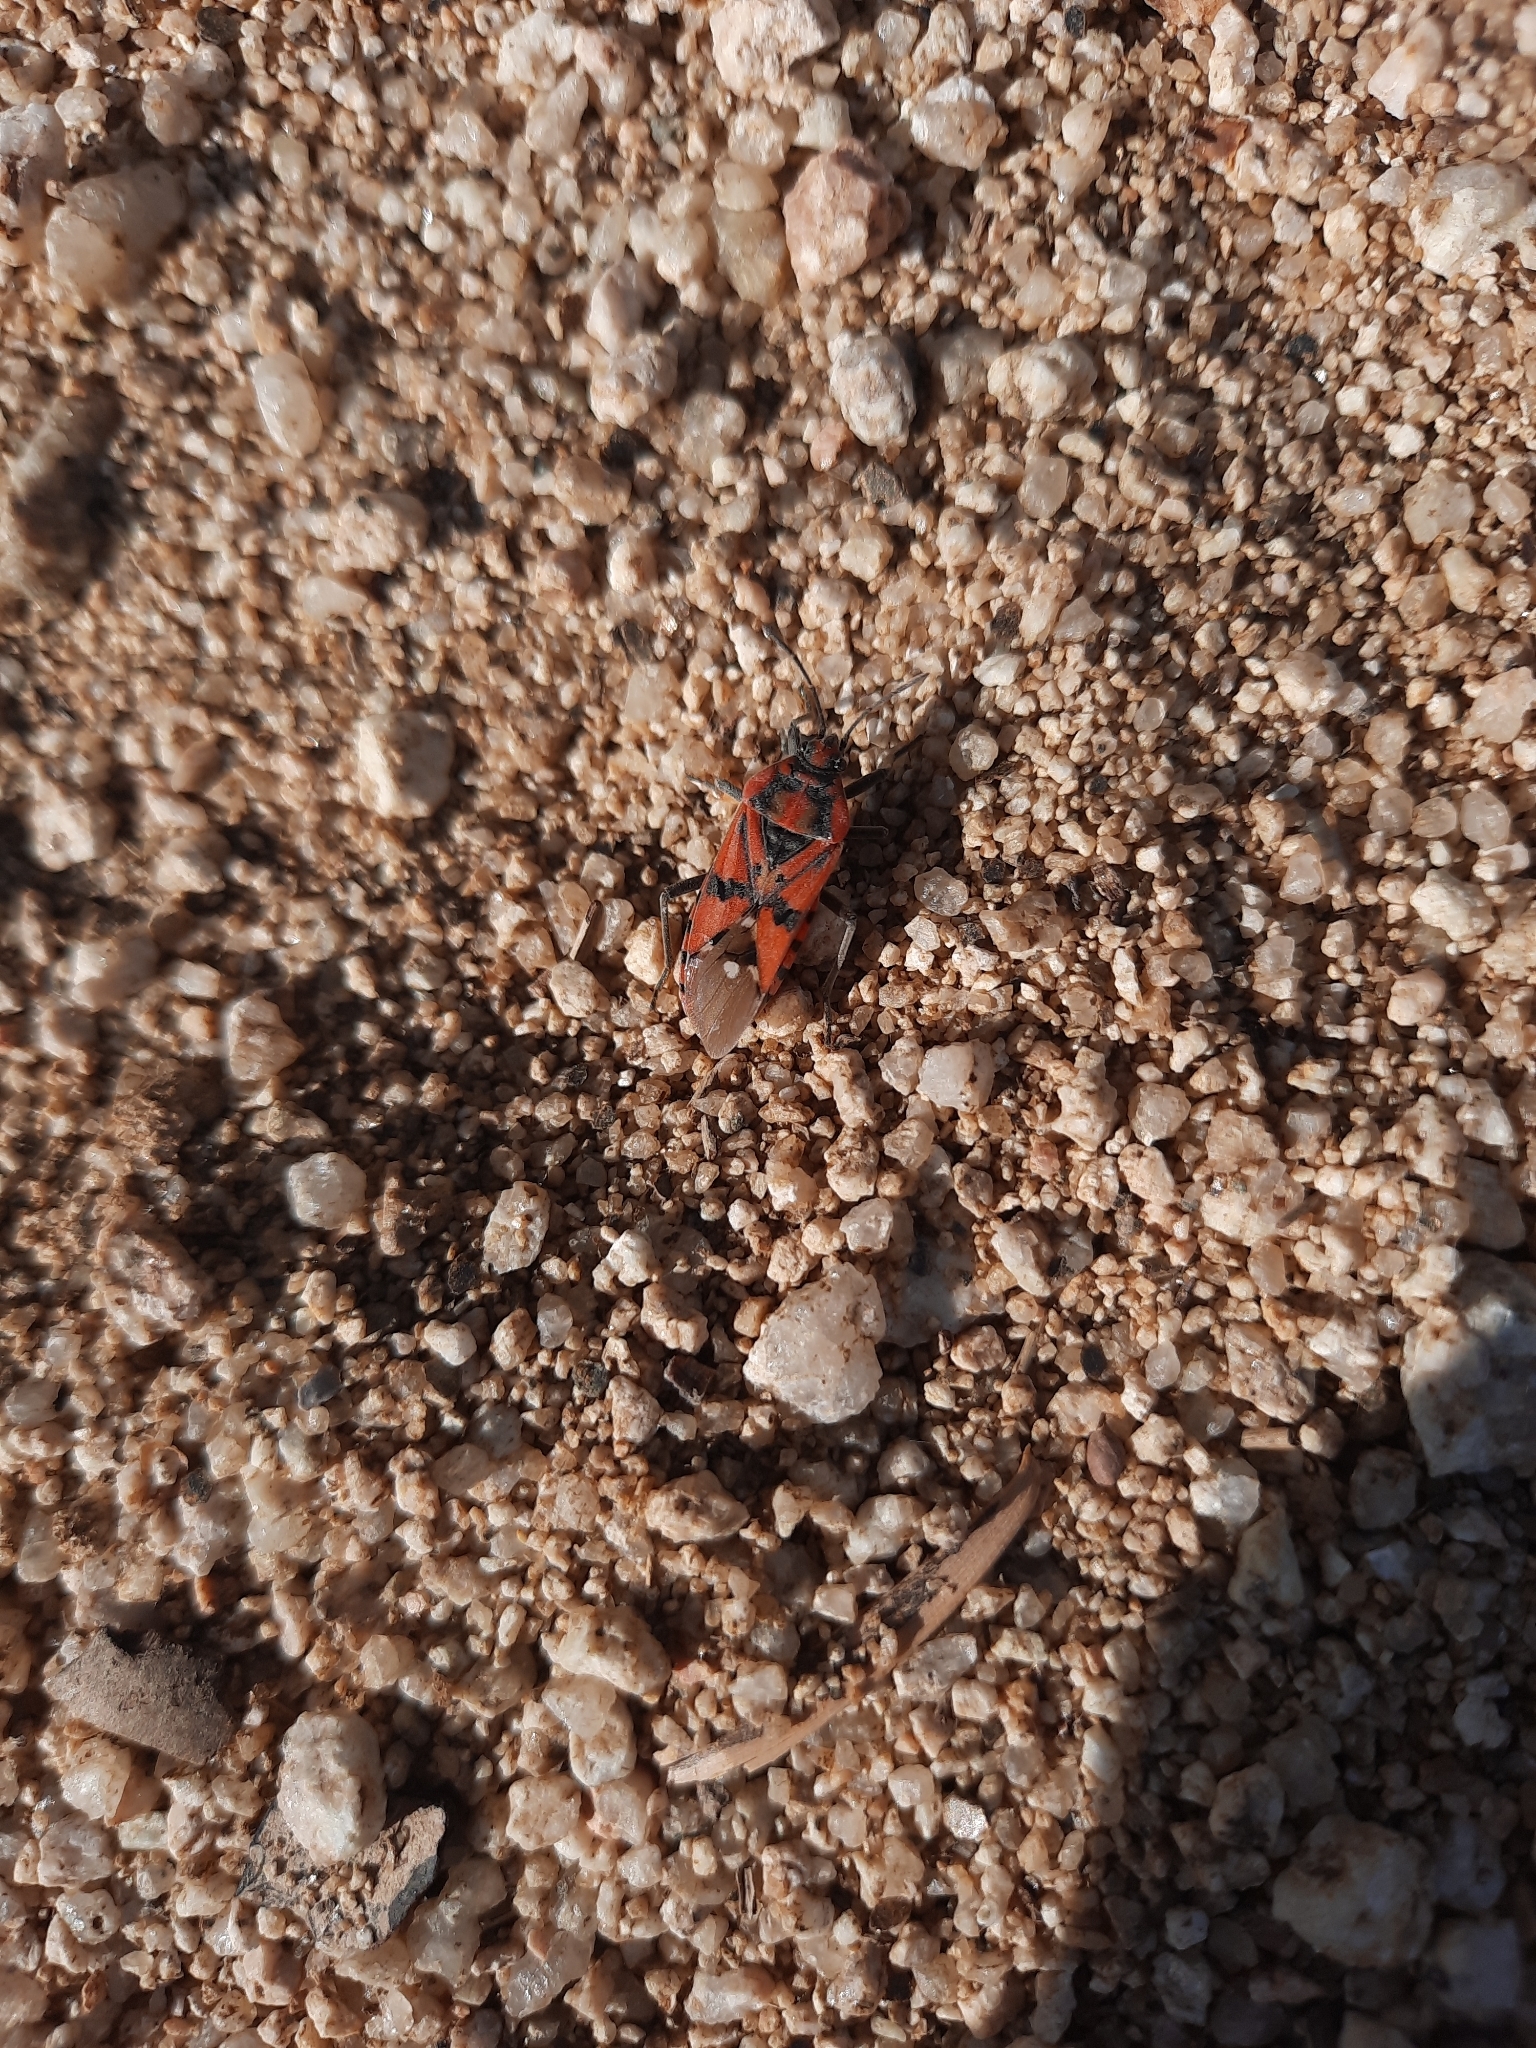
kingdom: Animalia
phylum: Arthropoda
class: Insecta
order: Hemiptera
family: Lygaeidae
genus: Spilostethus
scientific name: Spilostethus pandurus
